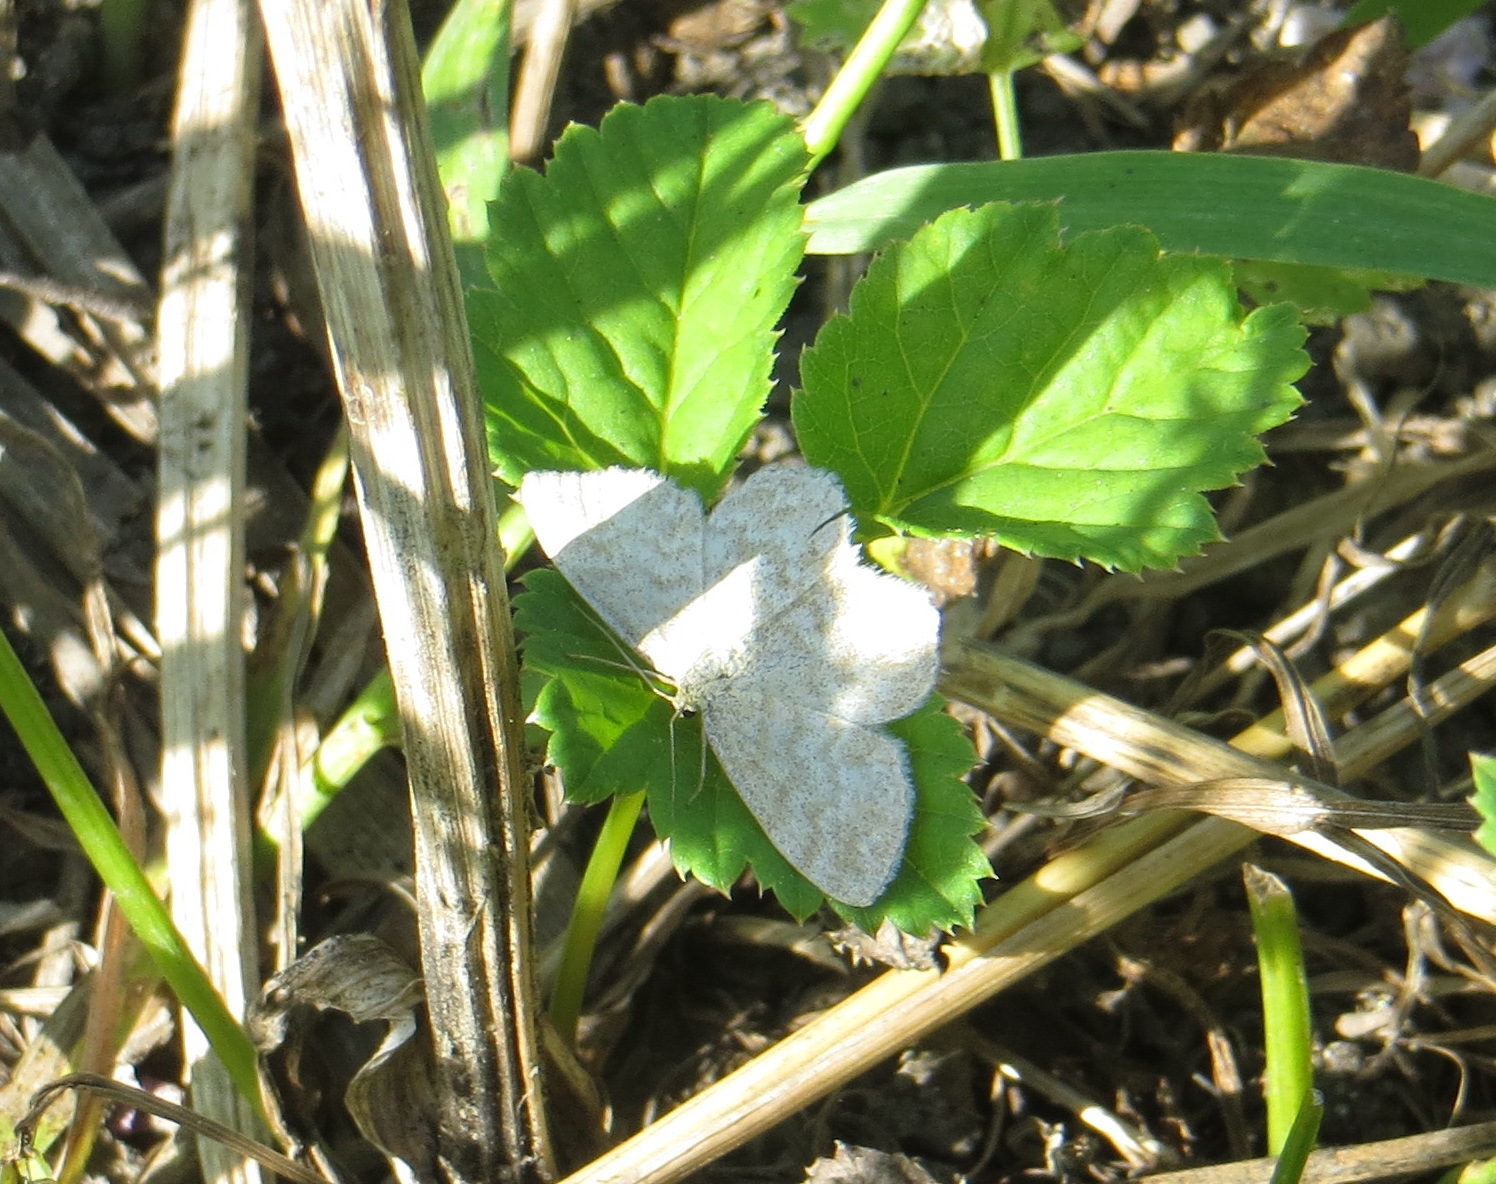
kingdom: Animalia
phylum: Arthropoda
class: Insecta
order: Lepidoptera
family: Geometridae
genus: Scopula
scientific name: Scopula immorata
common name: Lewes wave
